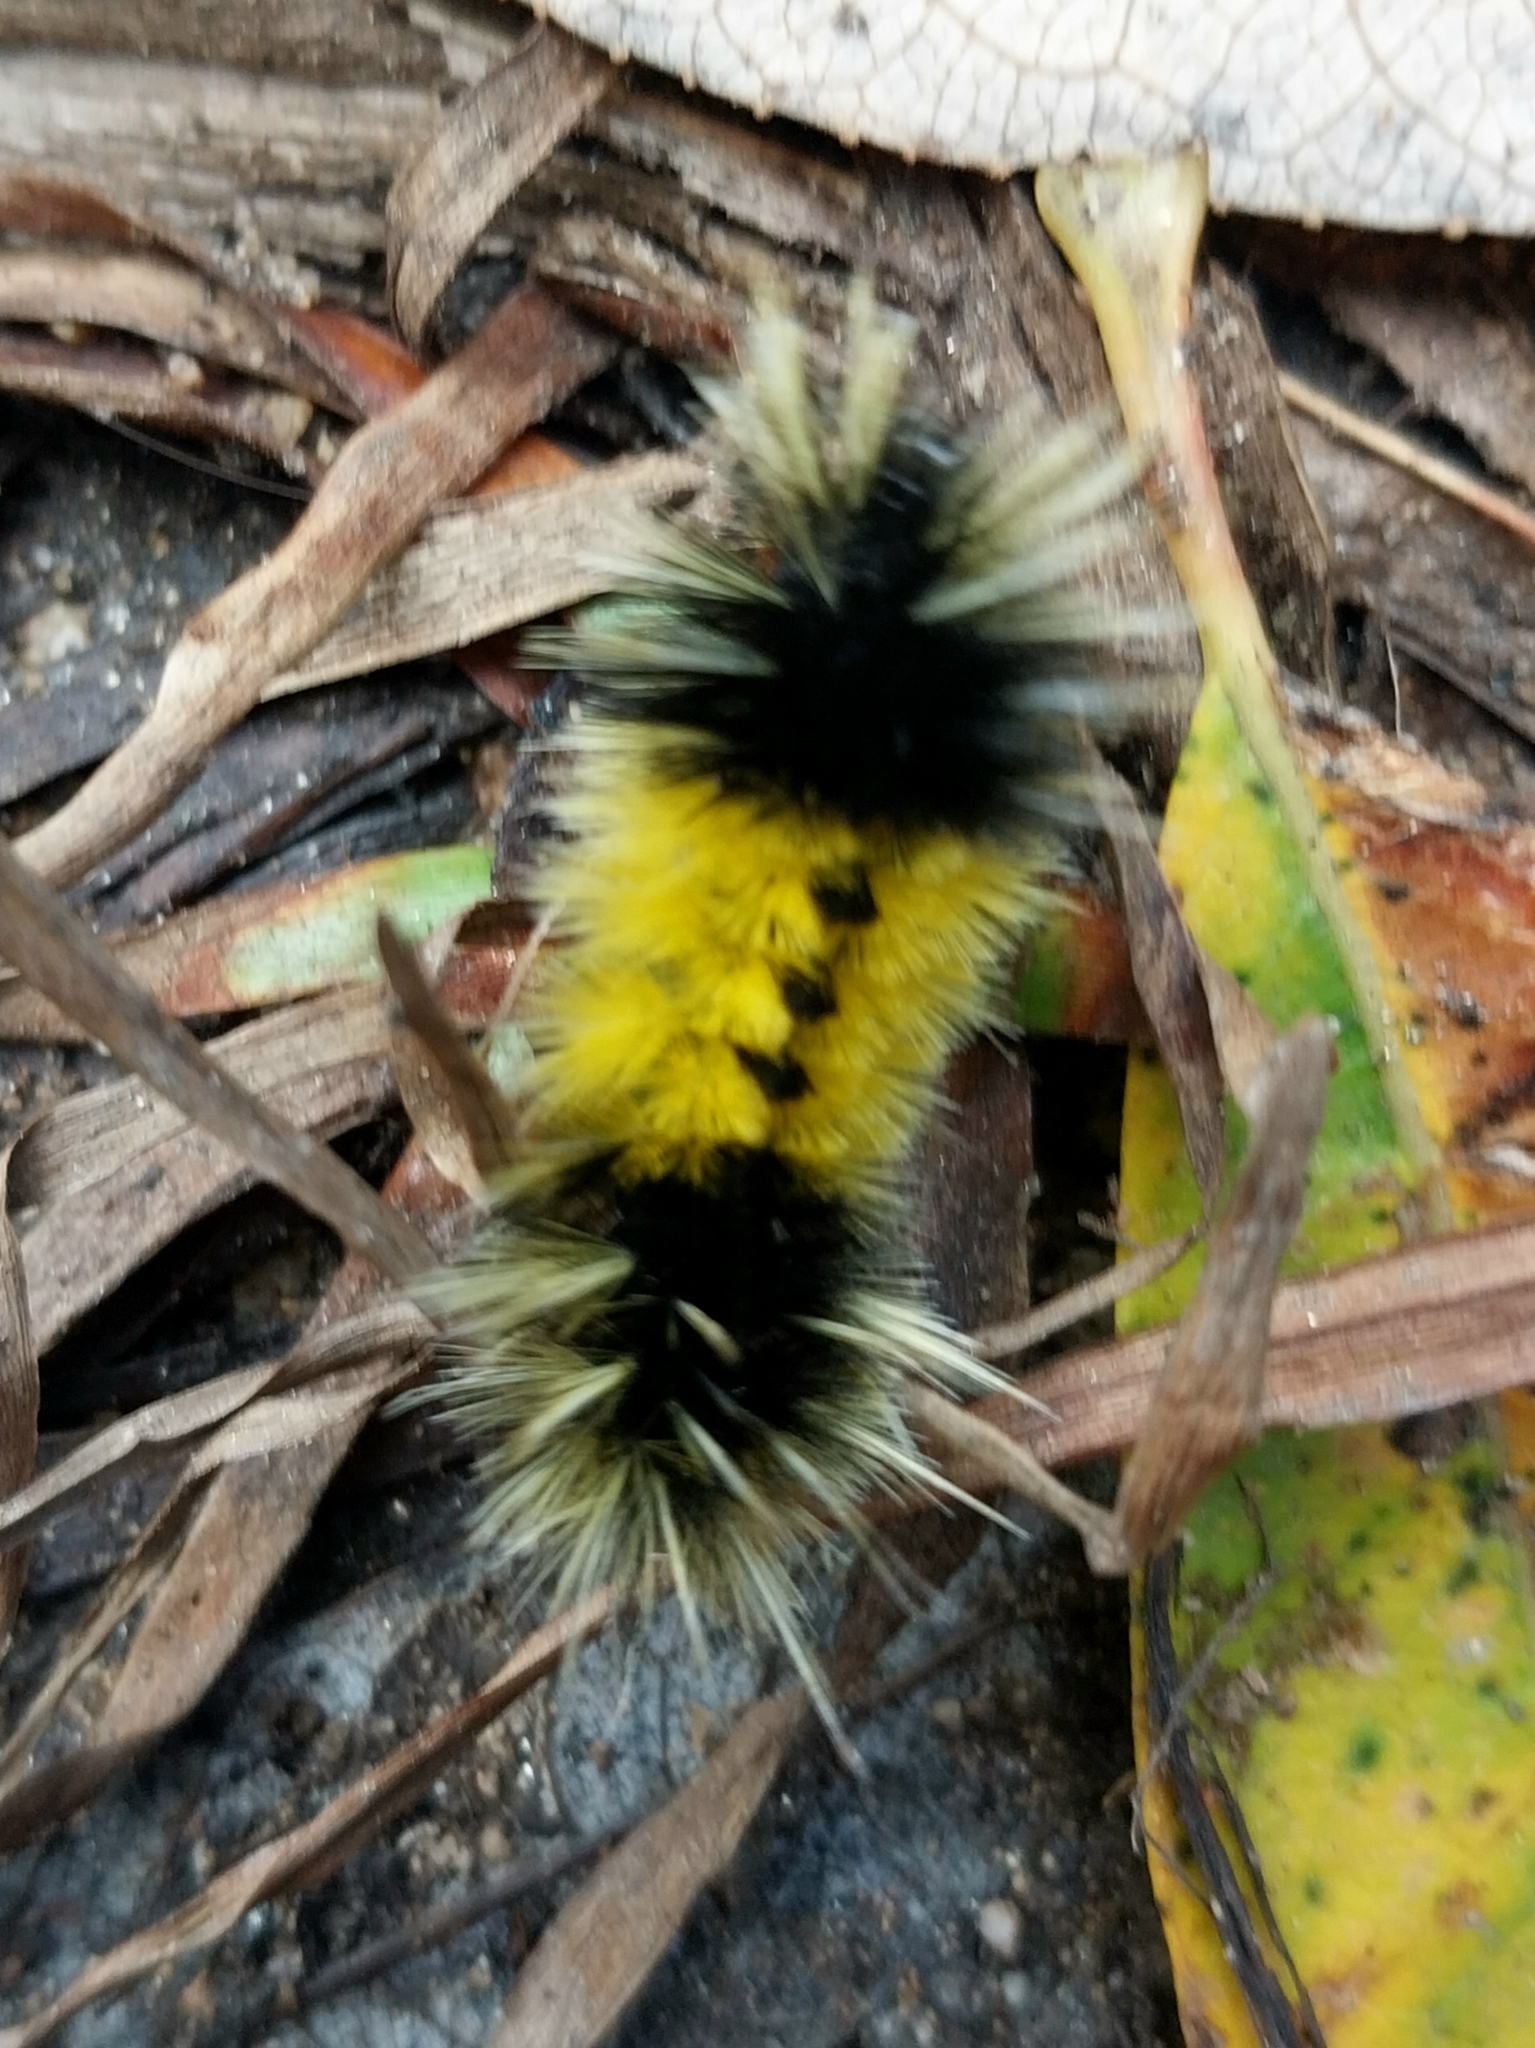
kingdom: Animalia
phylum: Arthropoda
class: Insecta
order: Lepidoptera
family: Erebidae
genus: Lophocampa
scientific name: Lophocampa maculata
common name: Spotted tussock moth
